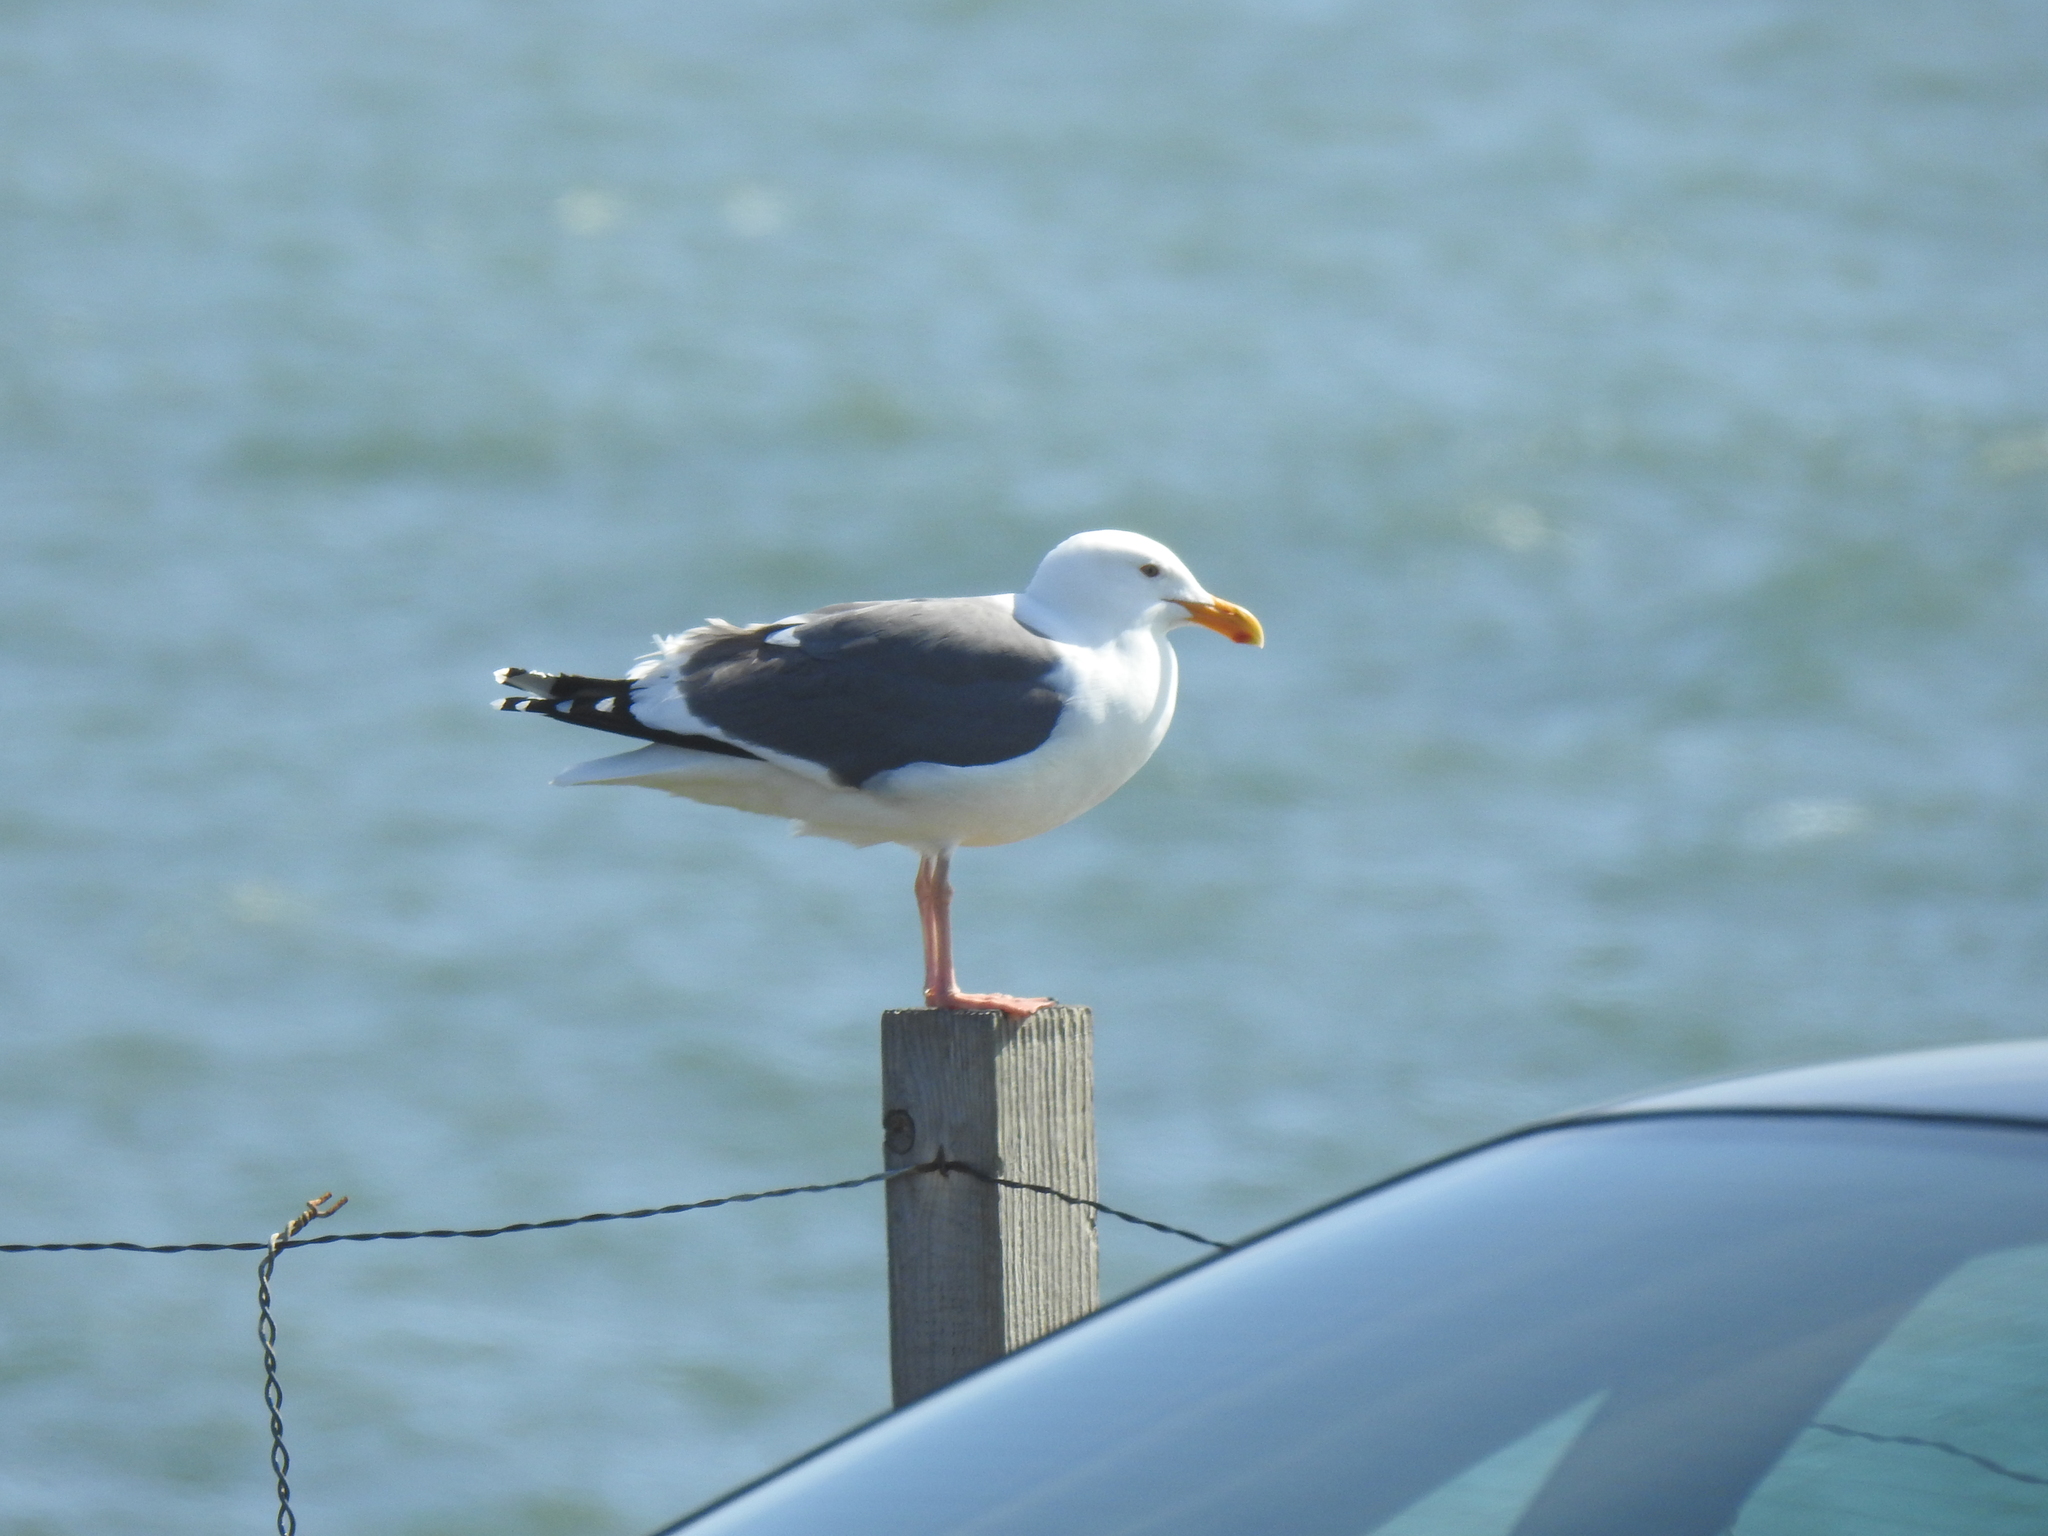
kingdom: Animalia
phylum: Chordata
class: Aves
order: Charadriiformes
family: Laridae
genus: Larus
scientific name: Larus occidentalis
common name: Western gull
